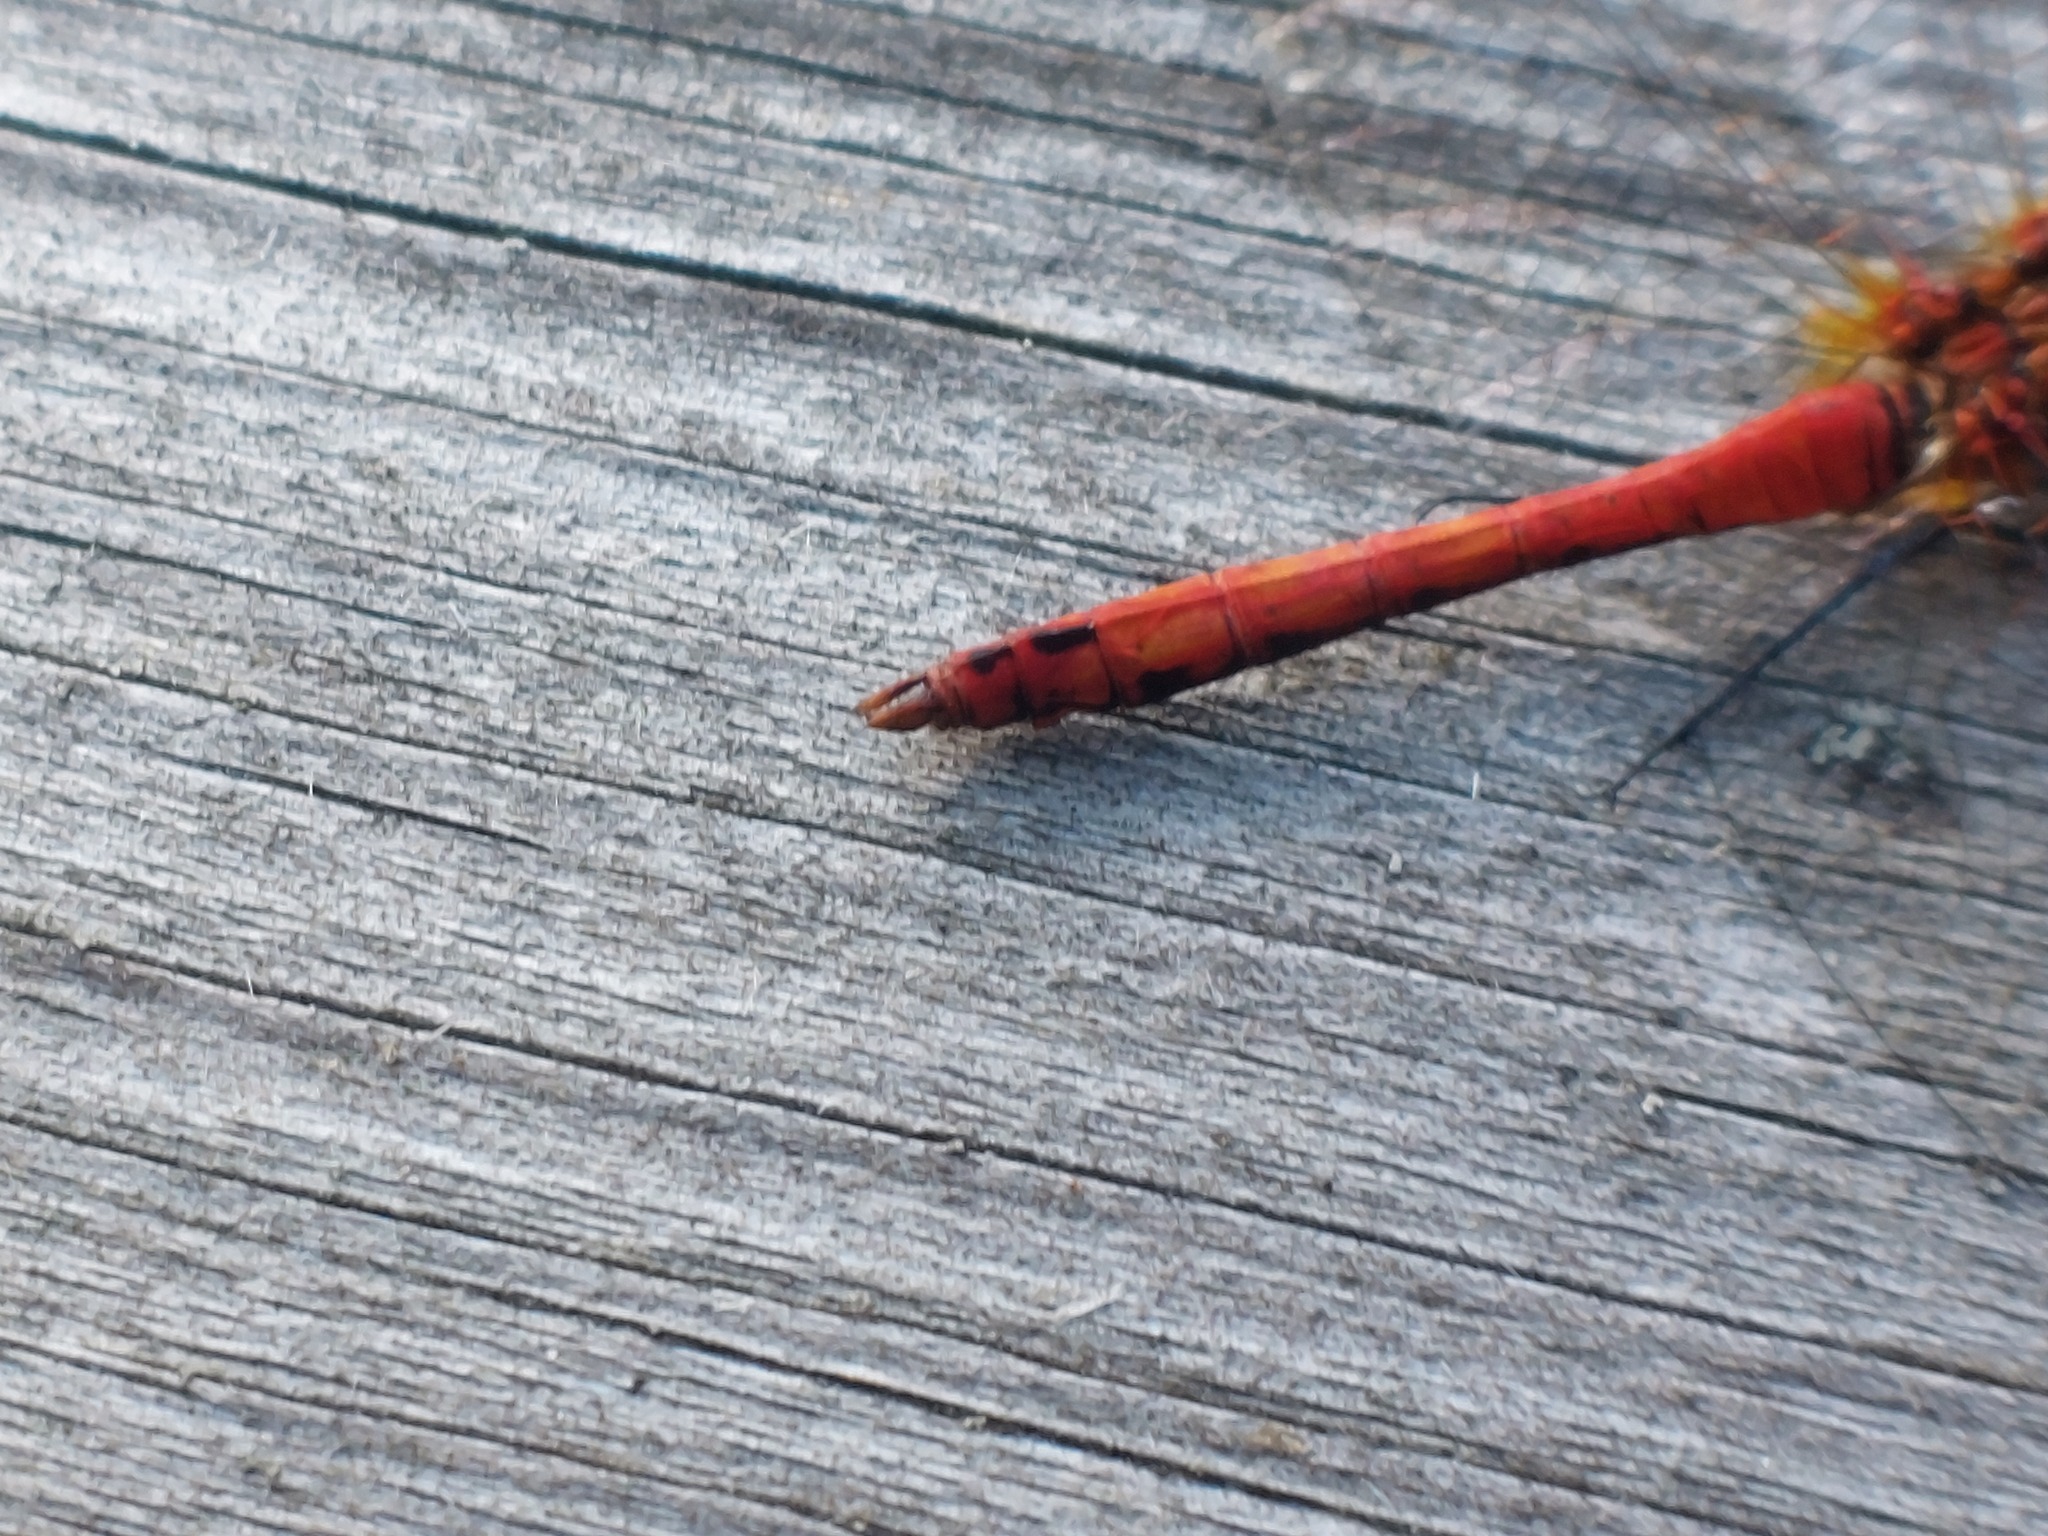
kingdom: Animalia
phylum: Arthropoda
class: Insecta
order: Odonata
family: Libellulidae
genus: Sympetrum
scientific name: Sympetrum sanguineum
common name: Ruddy darter
